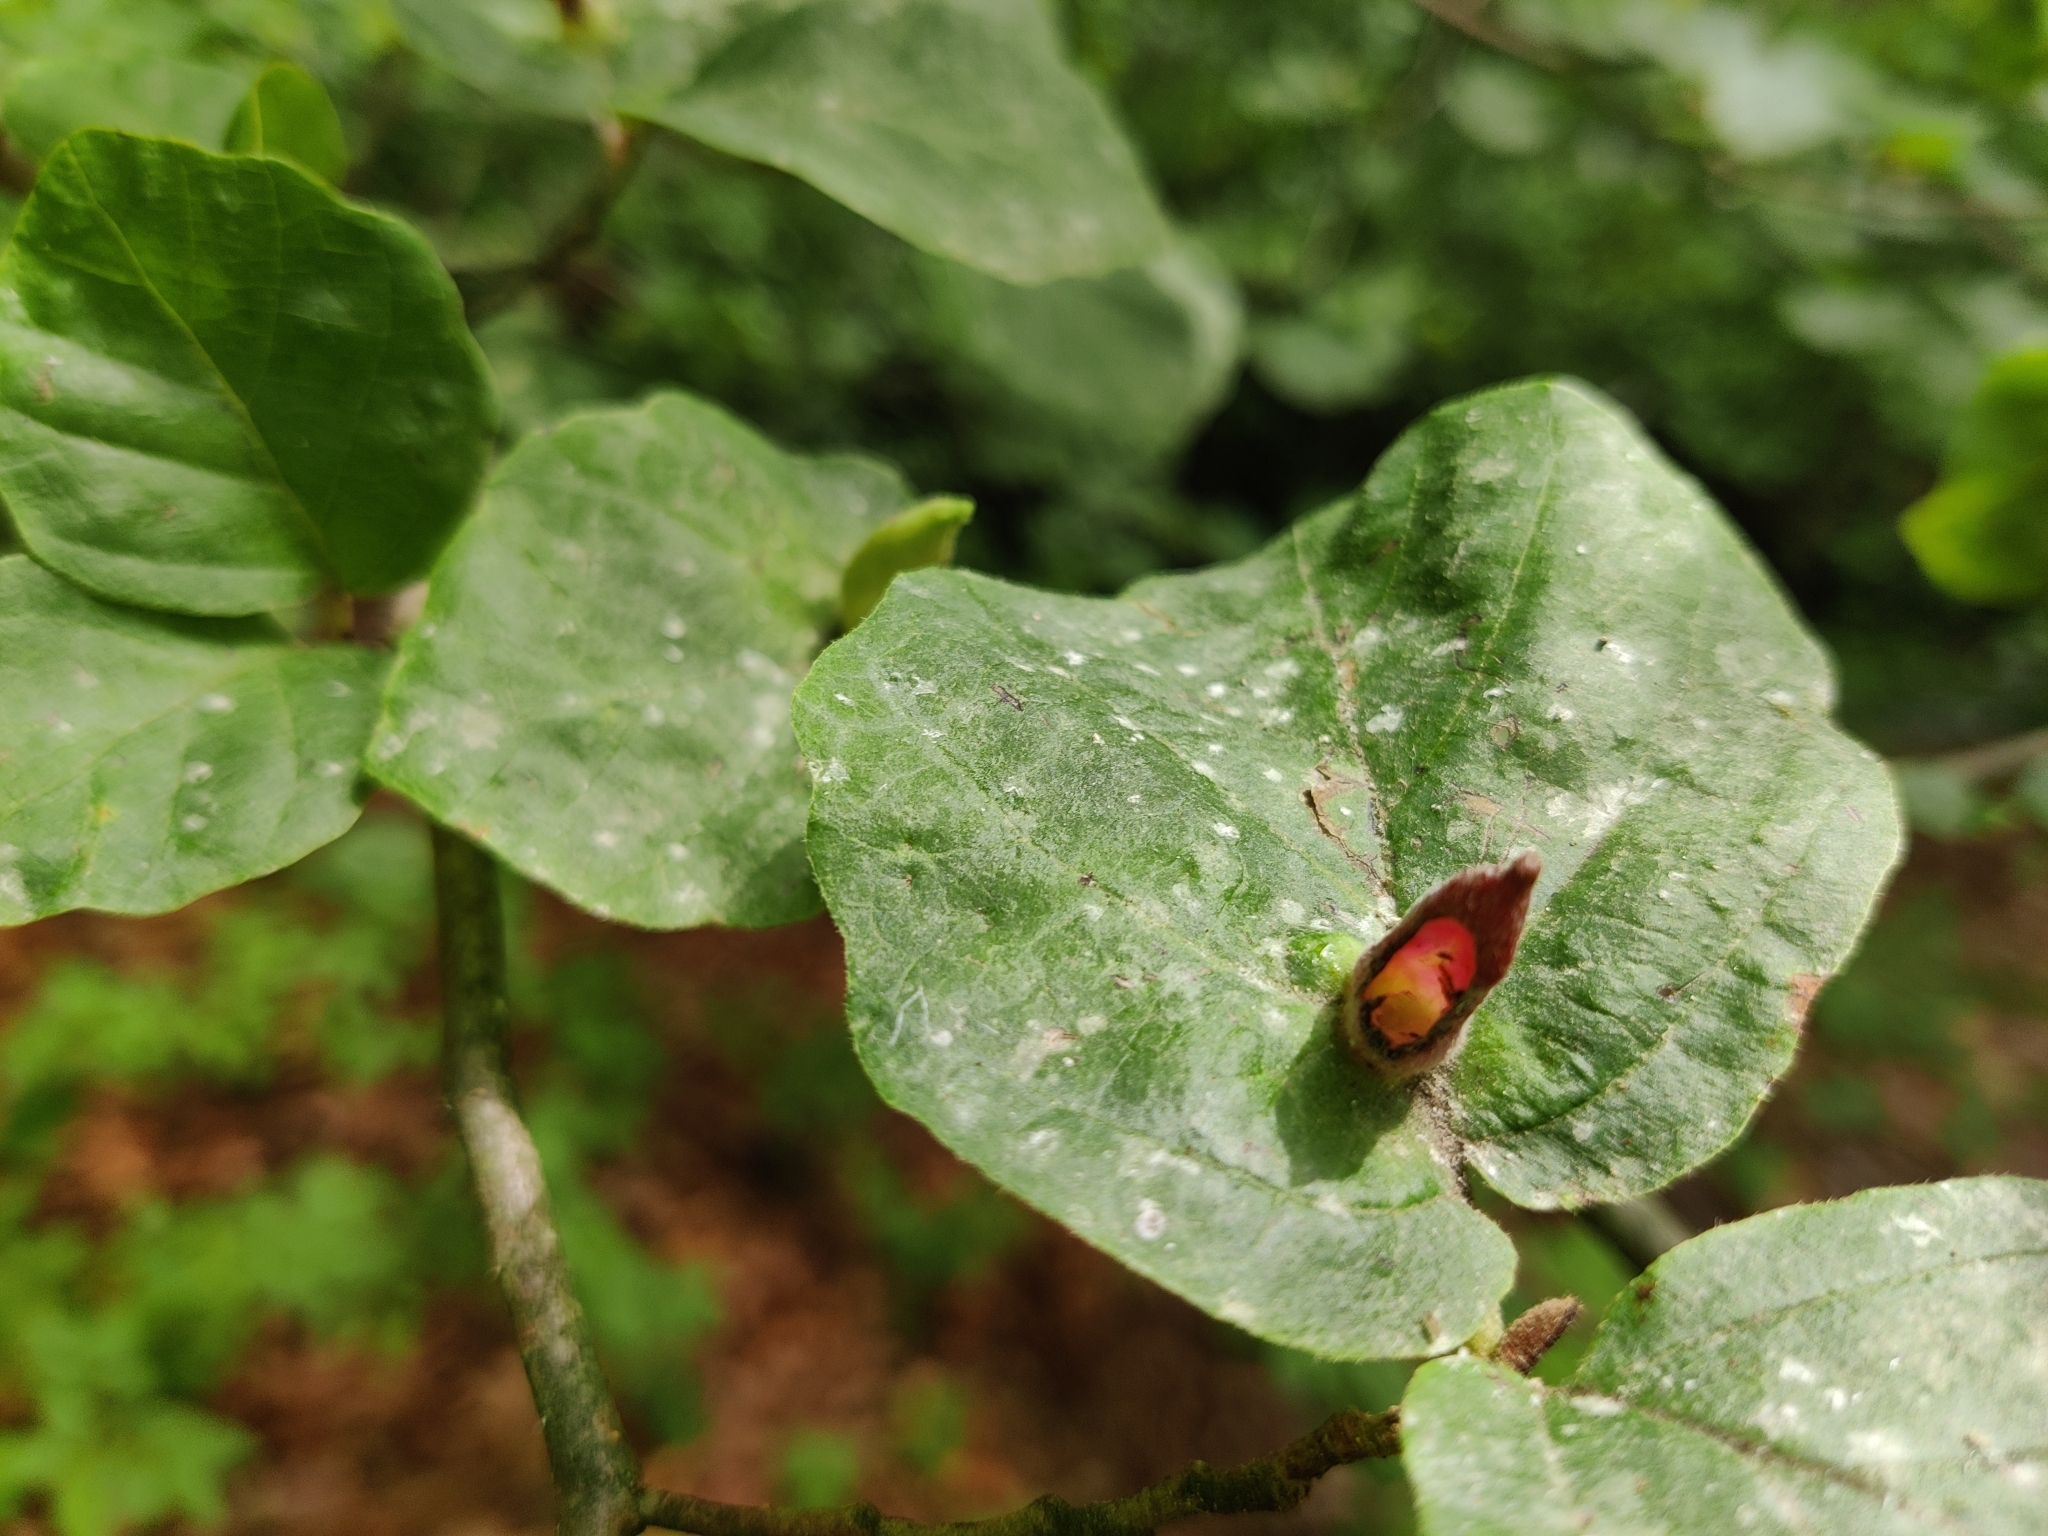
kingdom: Animalia
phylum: Arthropoda
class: Insecta
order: Hemiptera
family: Aphididae
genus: Hormaphis
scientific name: Hormaphis hamamelidis
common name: Witch-hazel cone gall aphid
